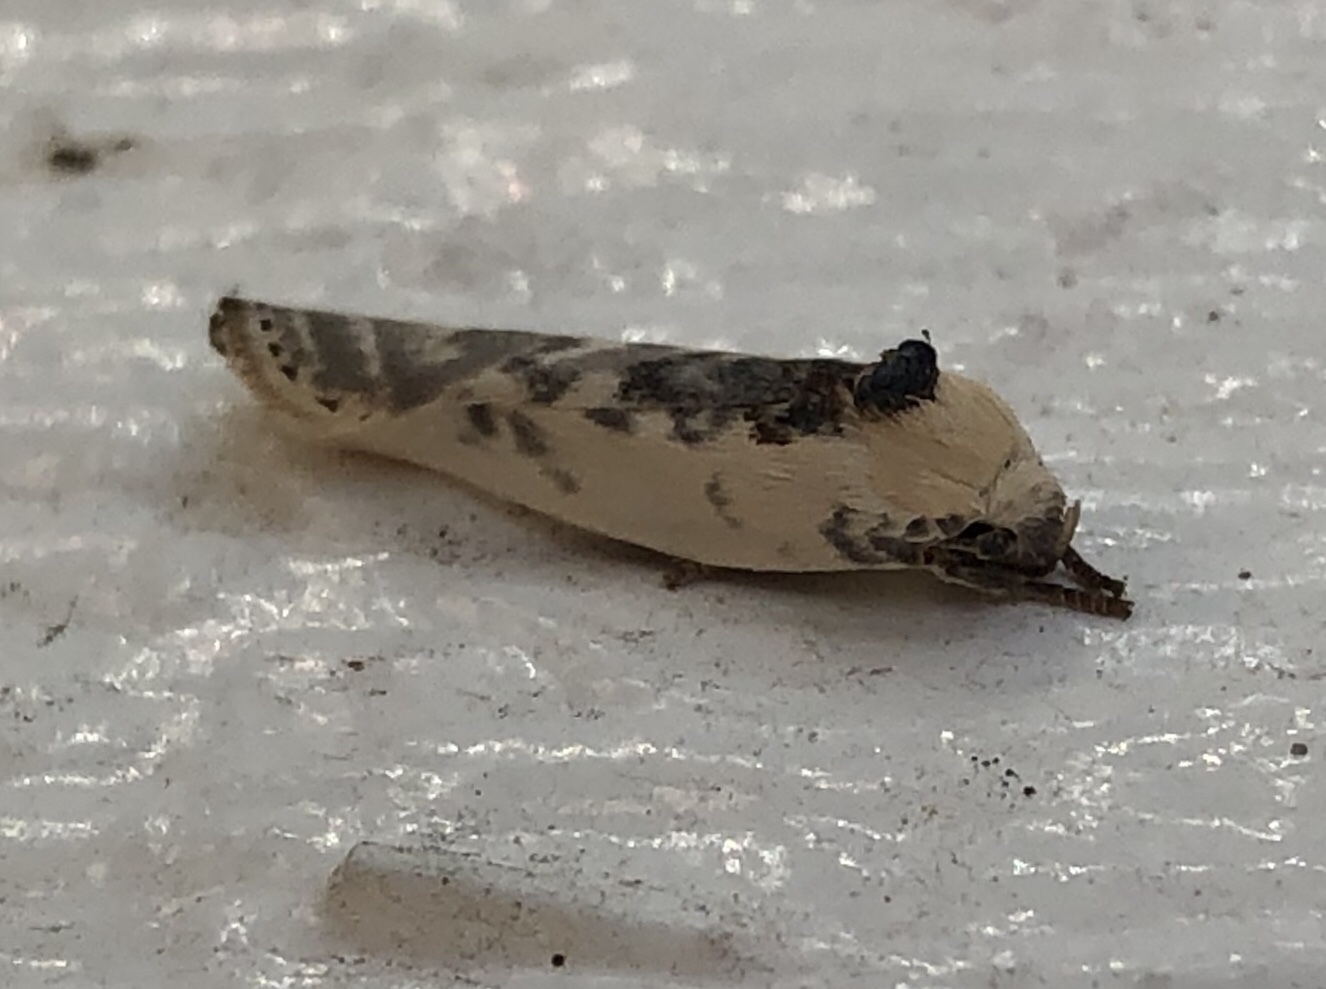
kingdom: Animalia
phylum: Arthropoda
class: Insecta
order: Lepidoptera
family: Depressariidae
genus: Antaeotricha
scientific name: Antaeotricha leucillana
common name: Pale gray bird-dropping moth
